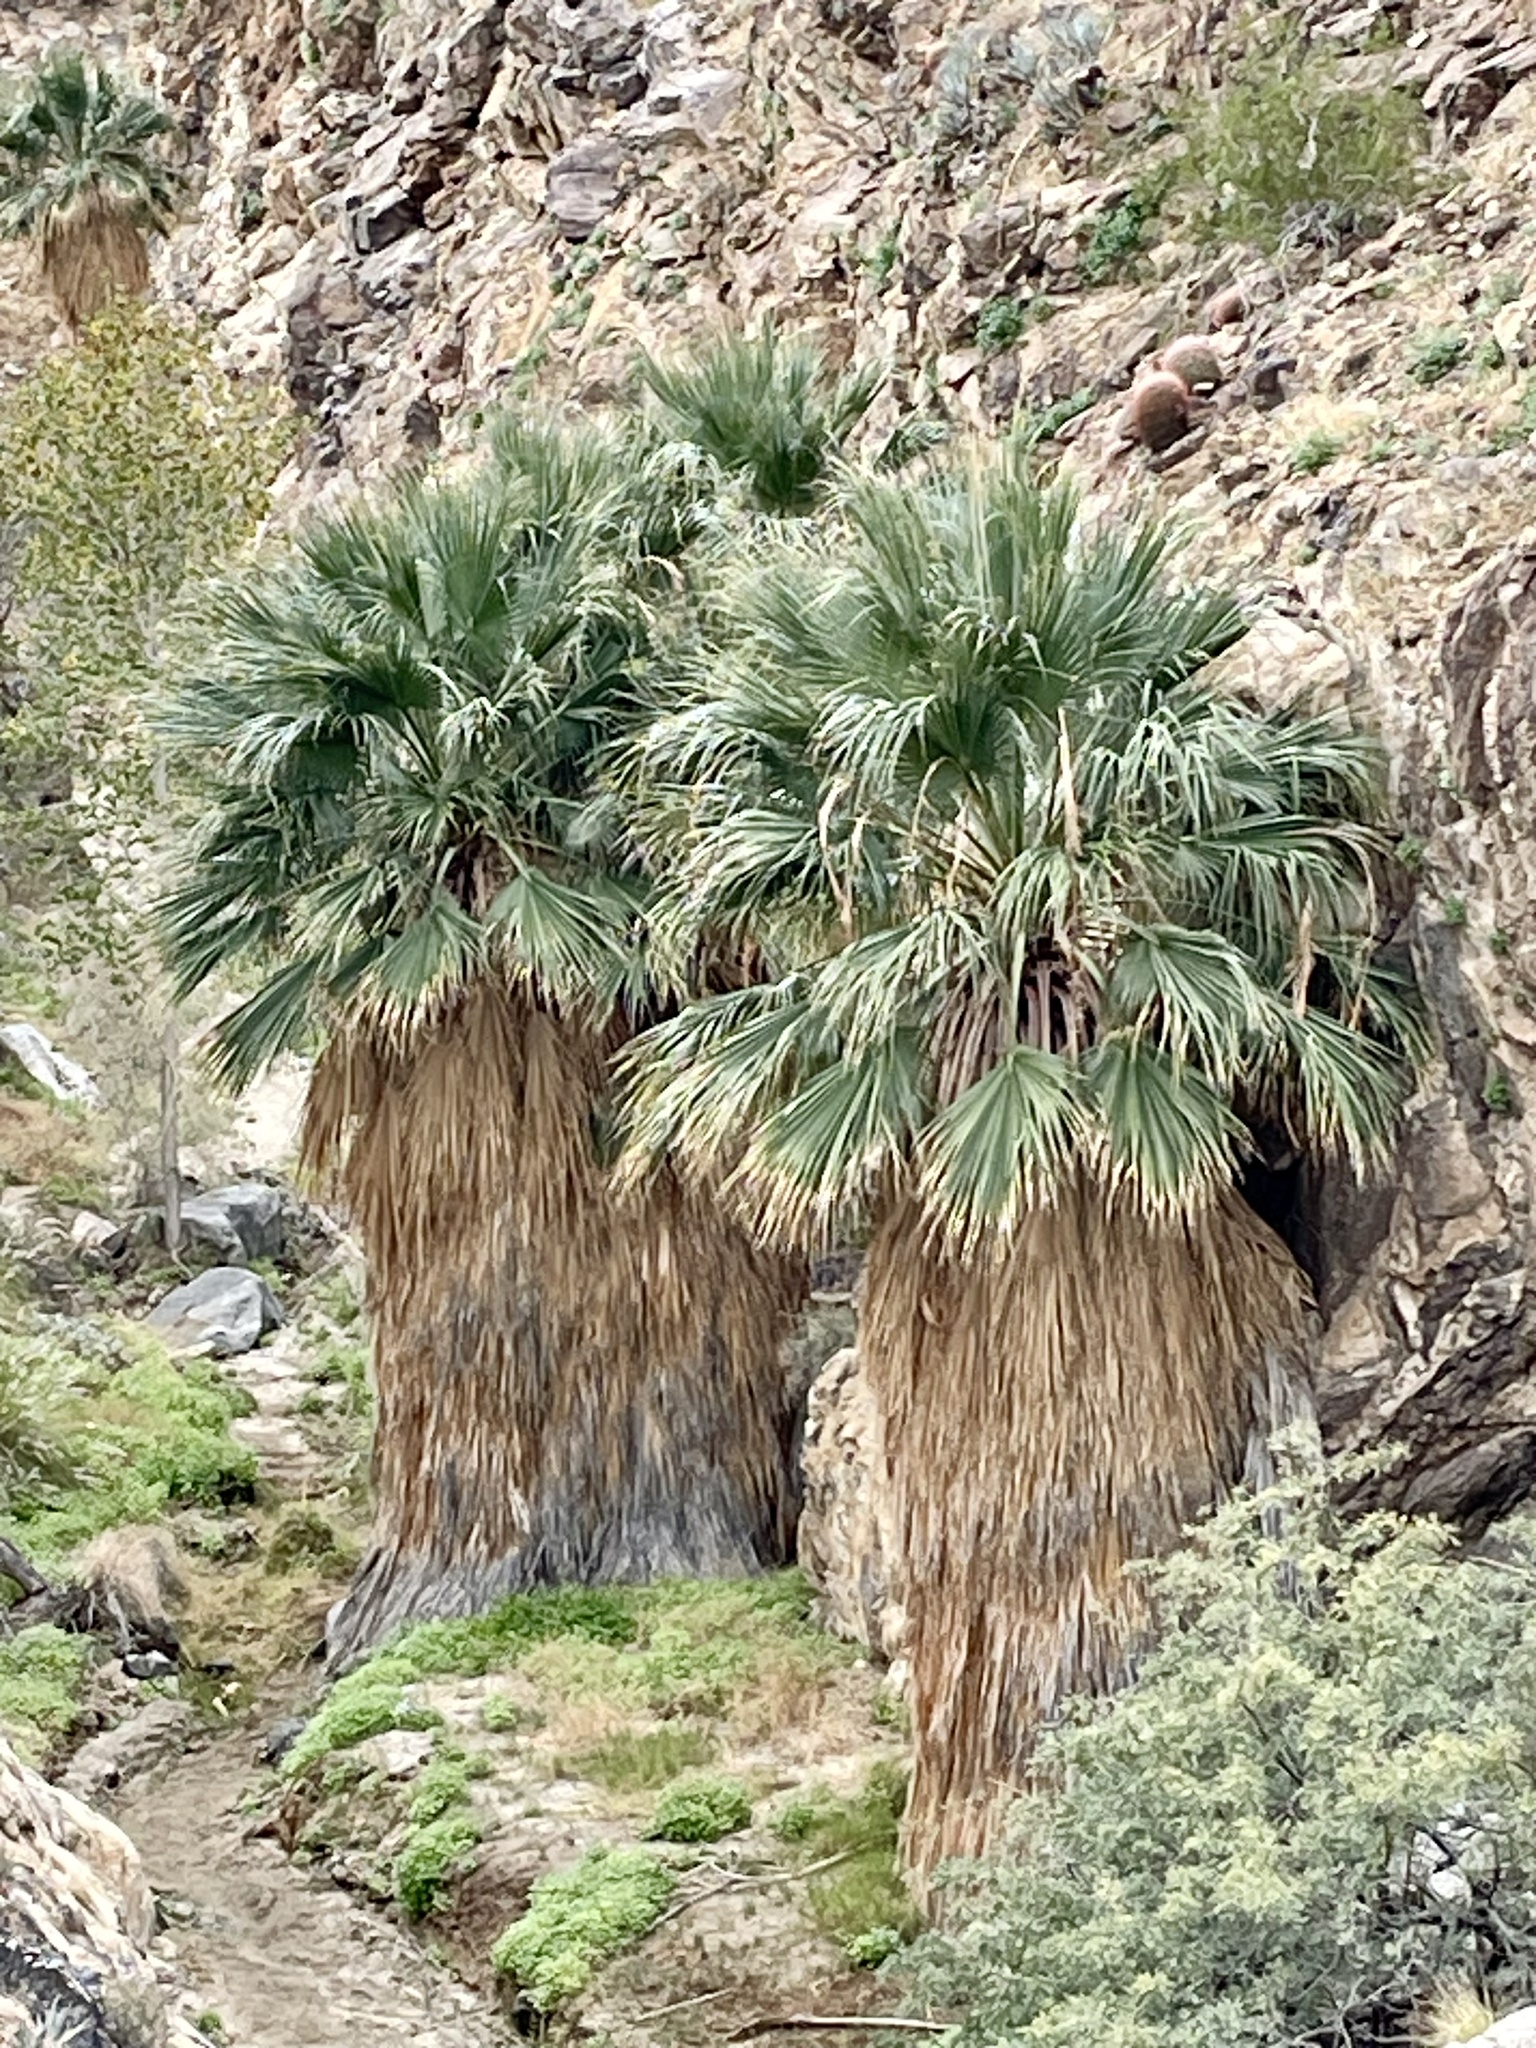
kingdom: Plantae
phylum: Tracheophyta
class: Liliopsida
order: Arecales
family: Arecaceae
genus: Washingtonia
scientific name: Washingtonia filifera
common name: California fan palm
